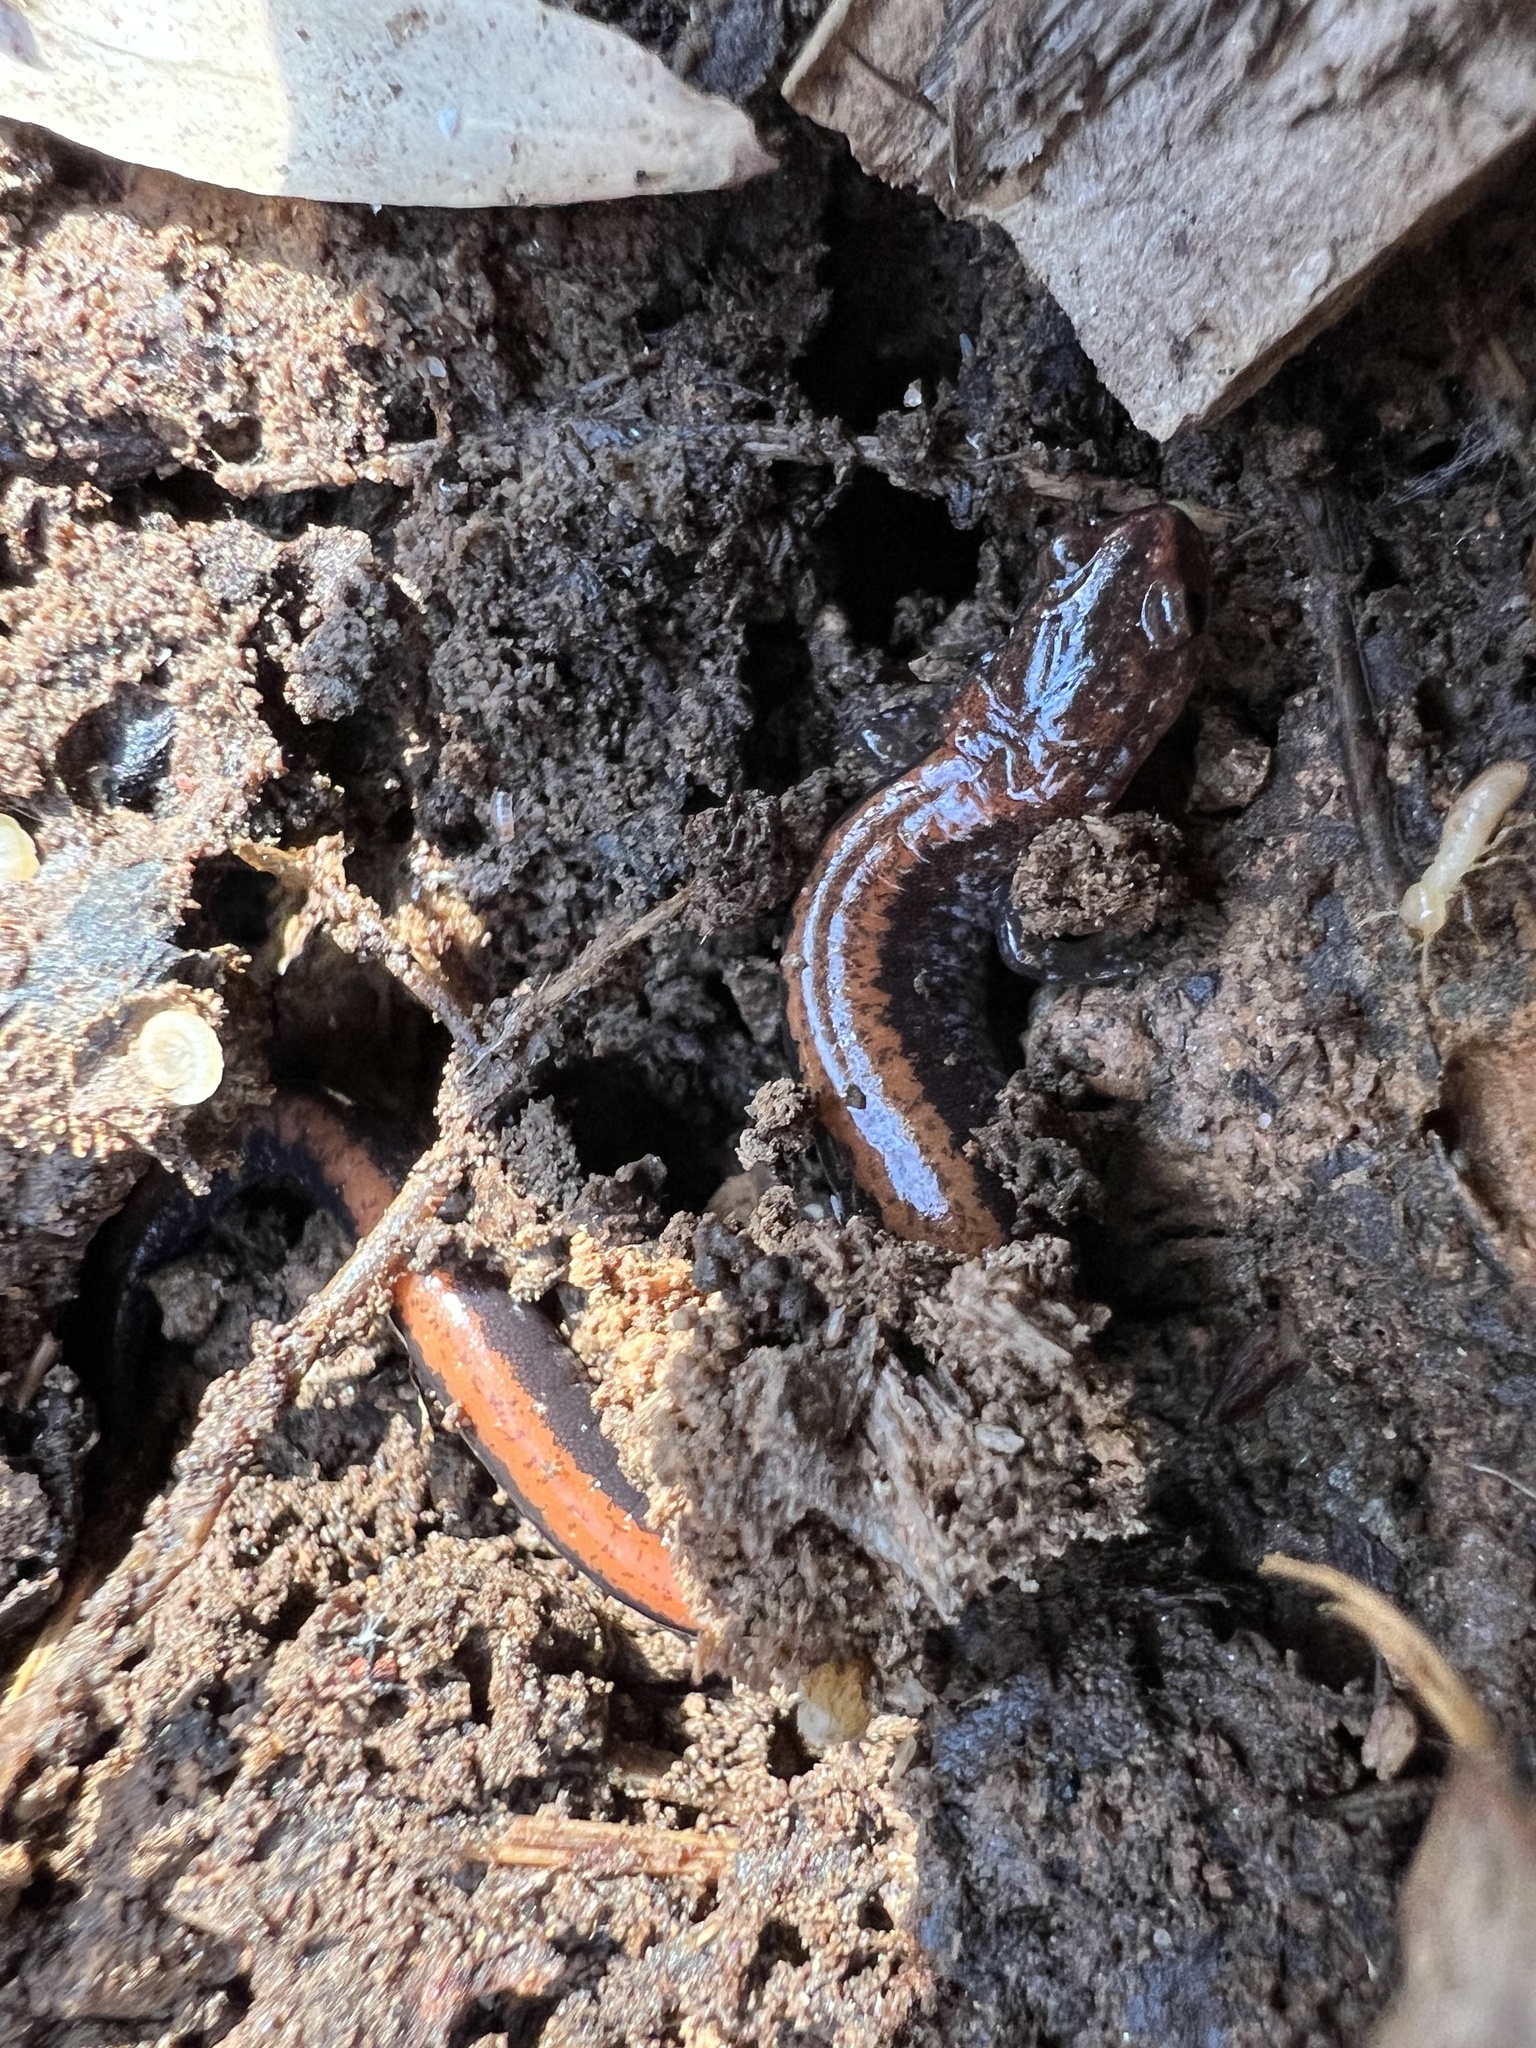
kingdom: Animalia
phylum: Chordata
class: Amphibia
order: Caudata
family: Plethodontidae
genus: Plethodon
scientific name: Plethodon cinereus
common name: Redback salamander
